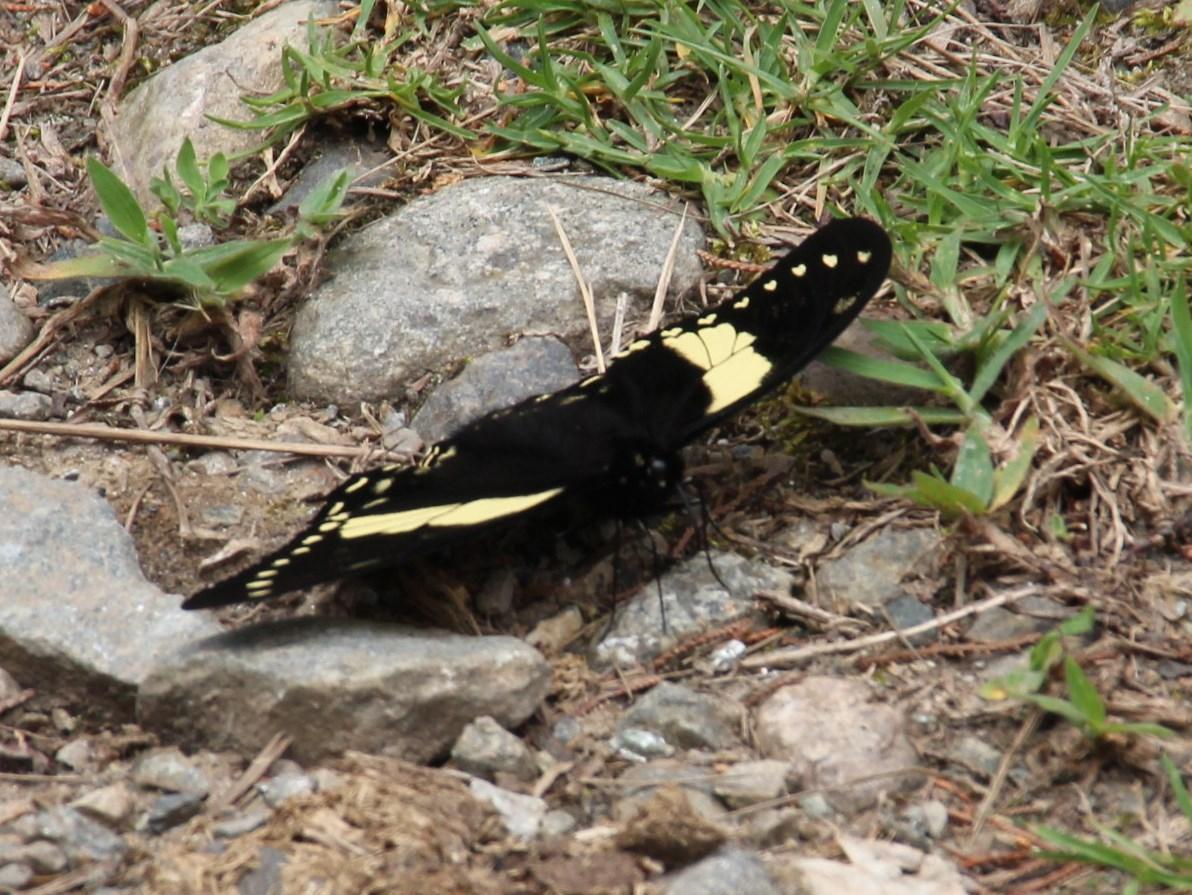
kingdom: Animalia
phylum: Arthropoda
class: Insecta
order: Lepidoptera
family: Papilionidae
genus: Papilio
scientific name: Papilio menatius
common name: Victorine swallowtail
